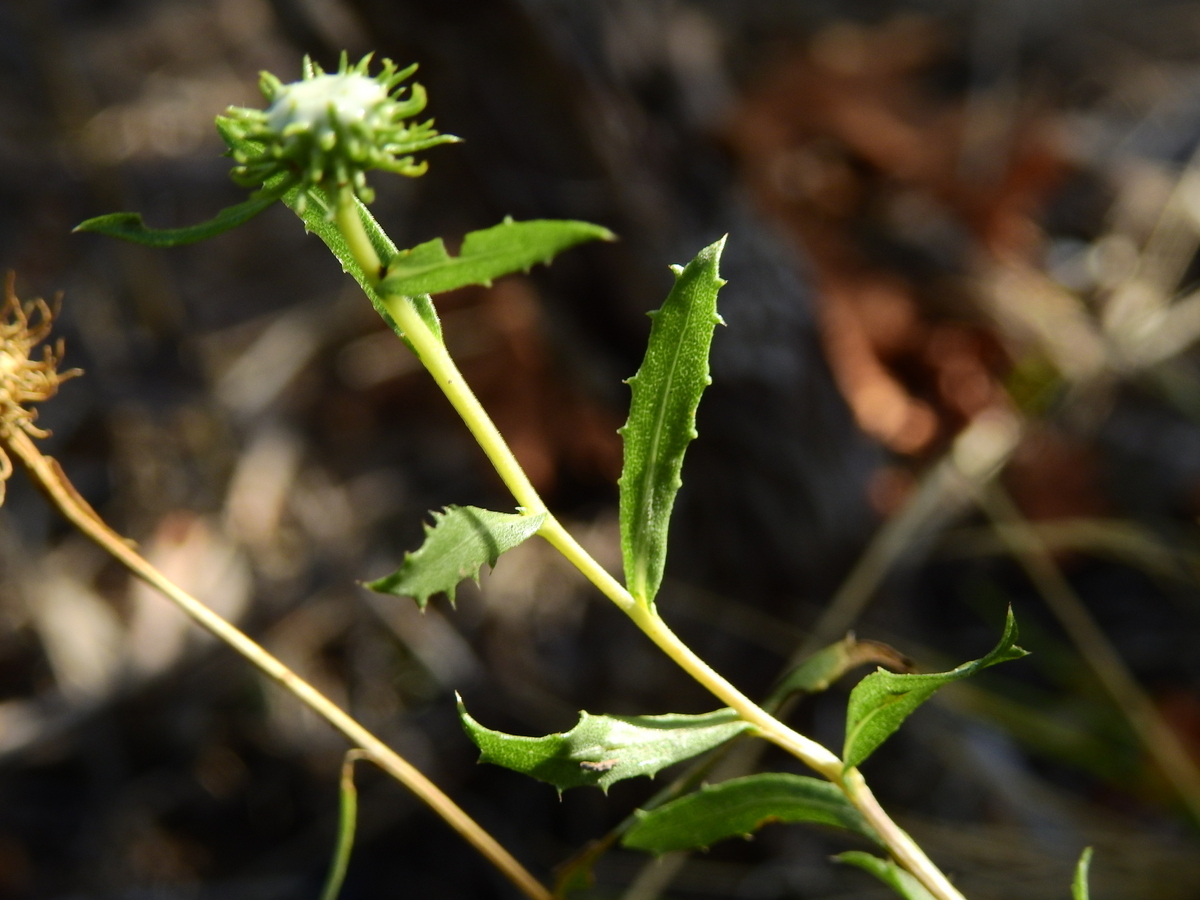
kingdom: Plantae
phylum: Tracheophyta
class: Magnoliopsida
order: Asterales
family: Asteraceae
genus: Grindelia
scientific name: Grindelia pulchella
